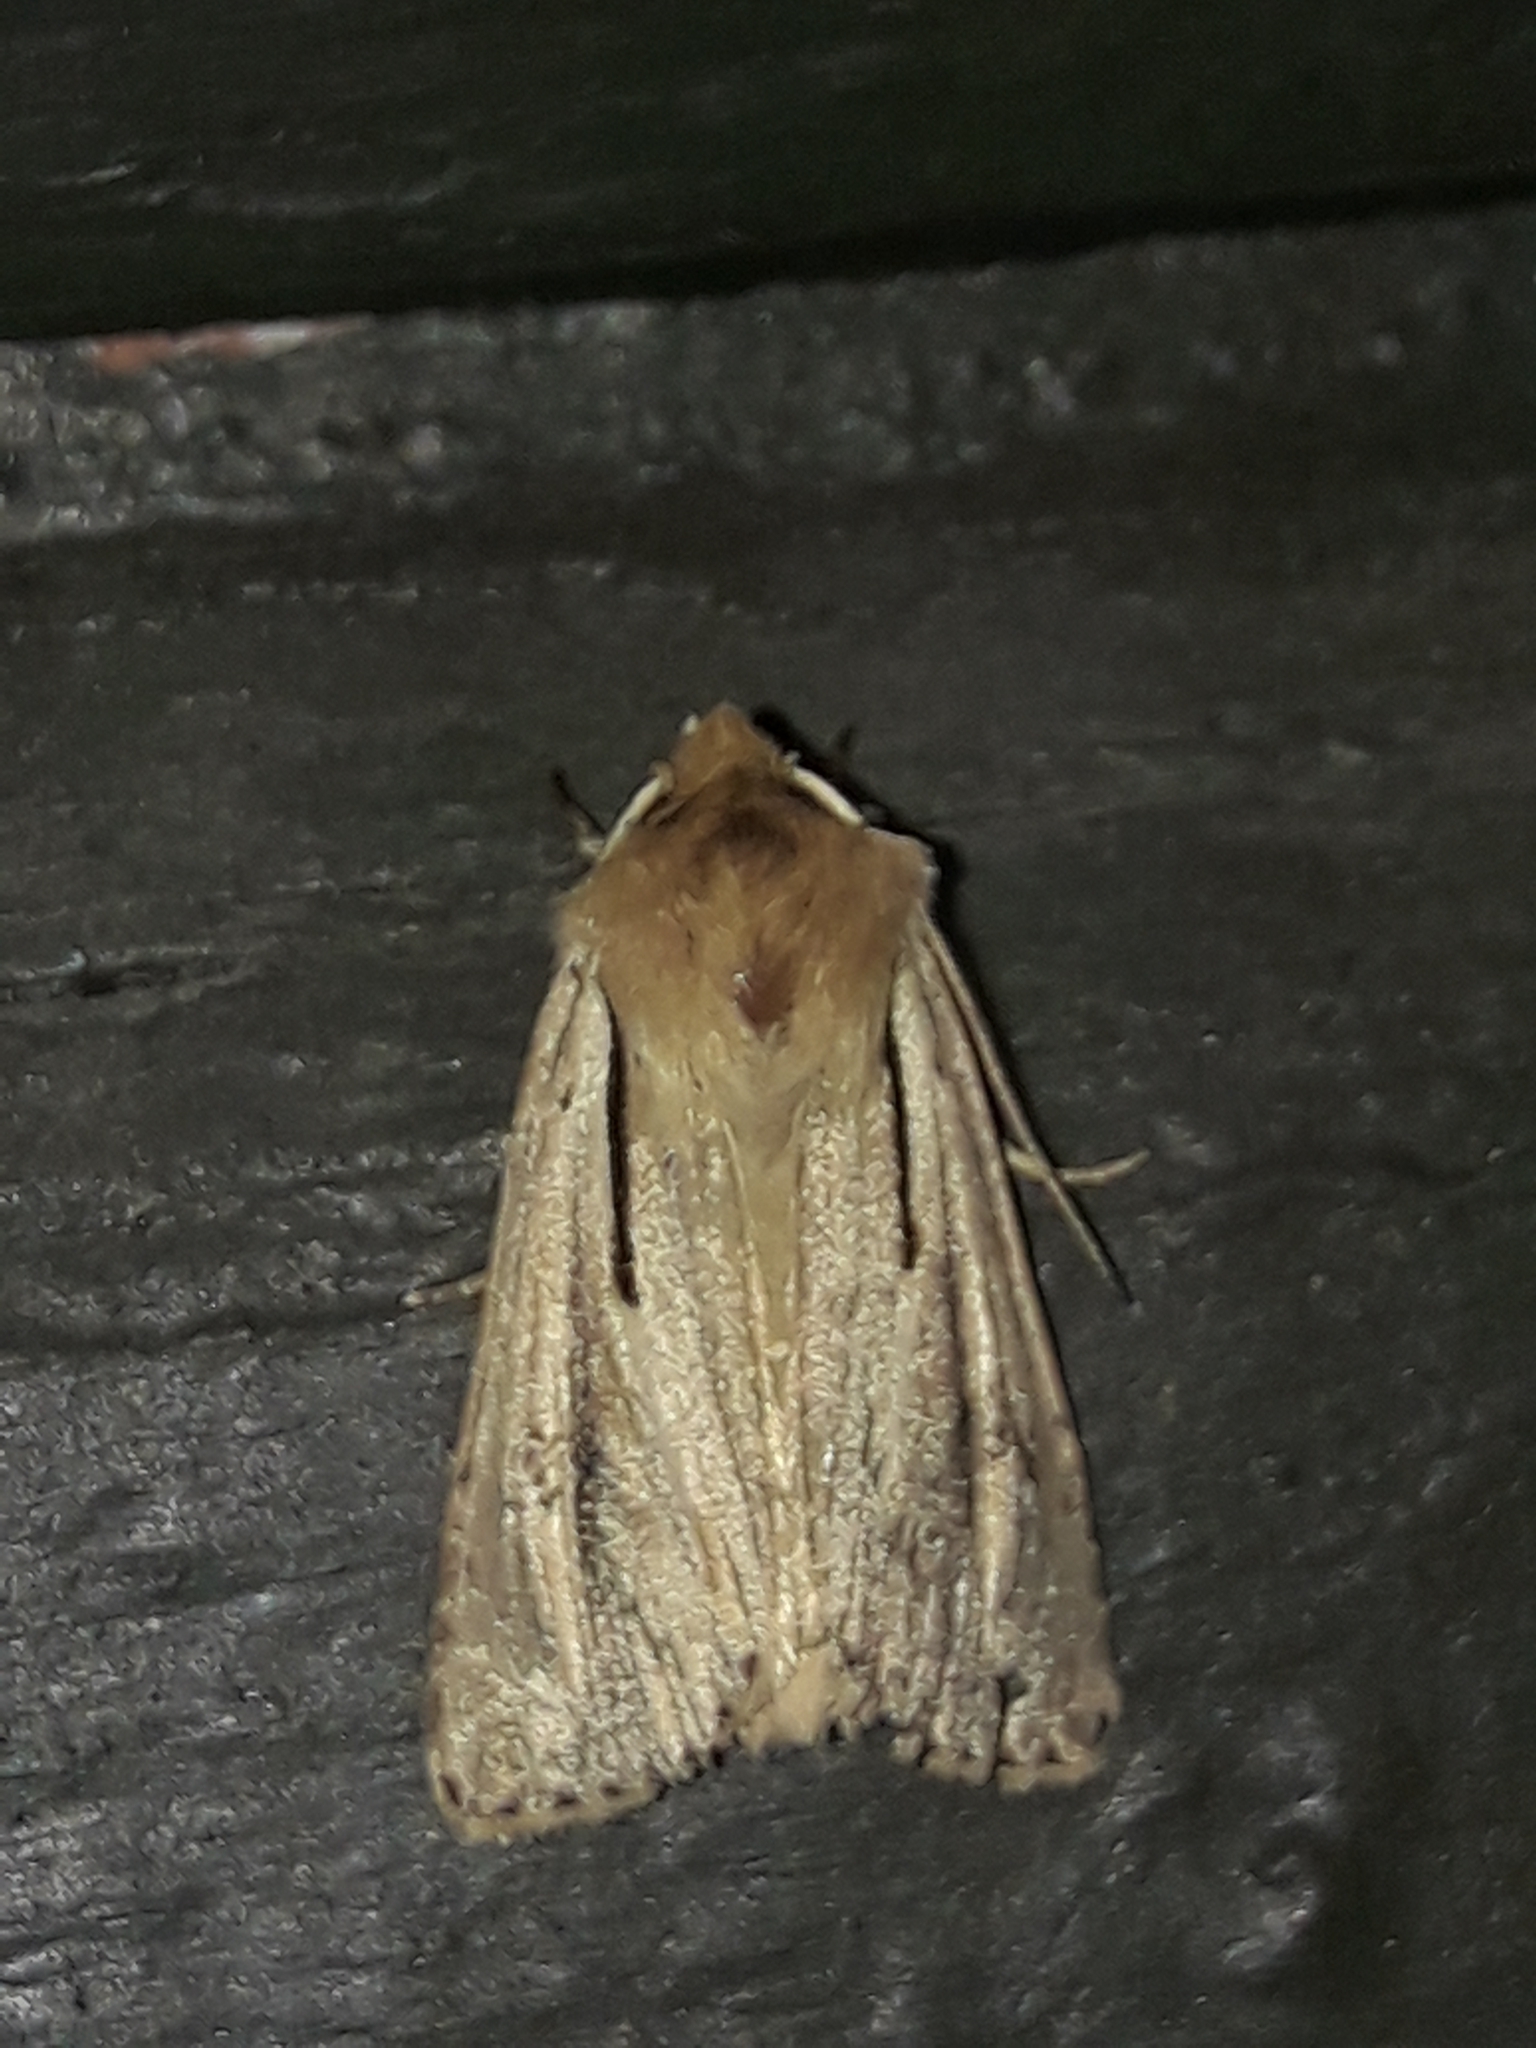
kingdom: Animalia
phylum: Arthropoda
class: Insecta
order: Lepidoptera
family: Noctuidae
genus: Ichneutica
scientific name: Ichneutica propria
